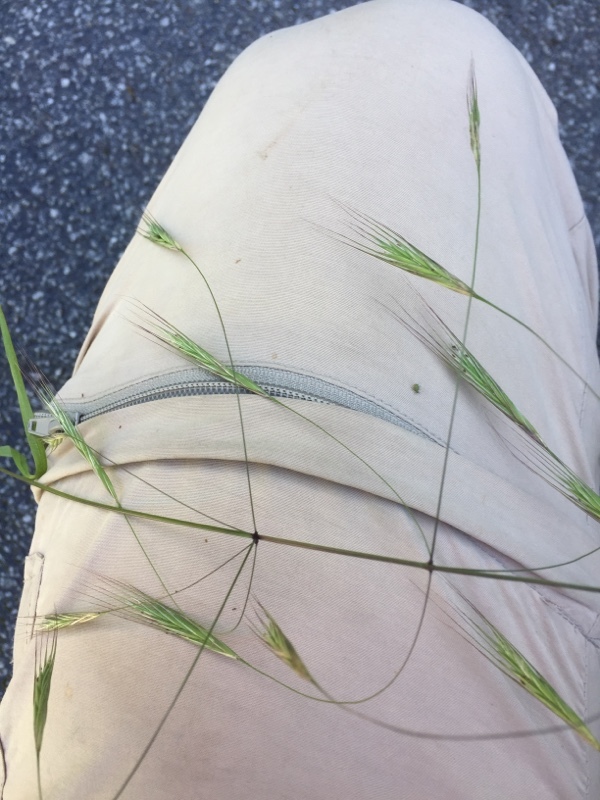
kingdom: Plantae
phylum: Tracheophyta
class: Liliopsida
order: Poales
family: Poaceae
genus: Bromus
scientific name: Bromus sterilis
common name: Poverty brome
